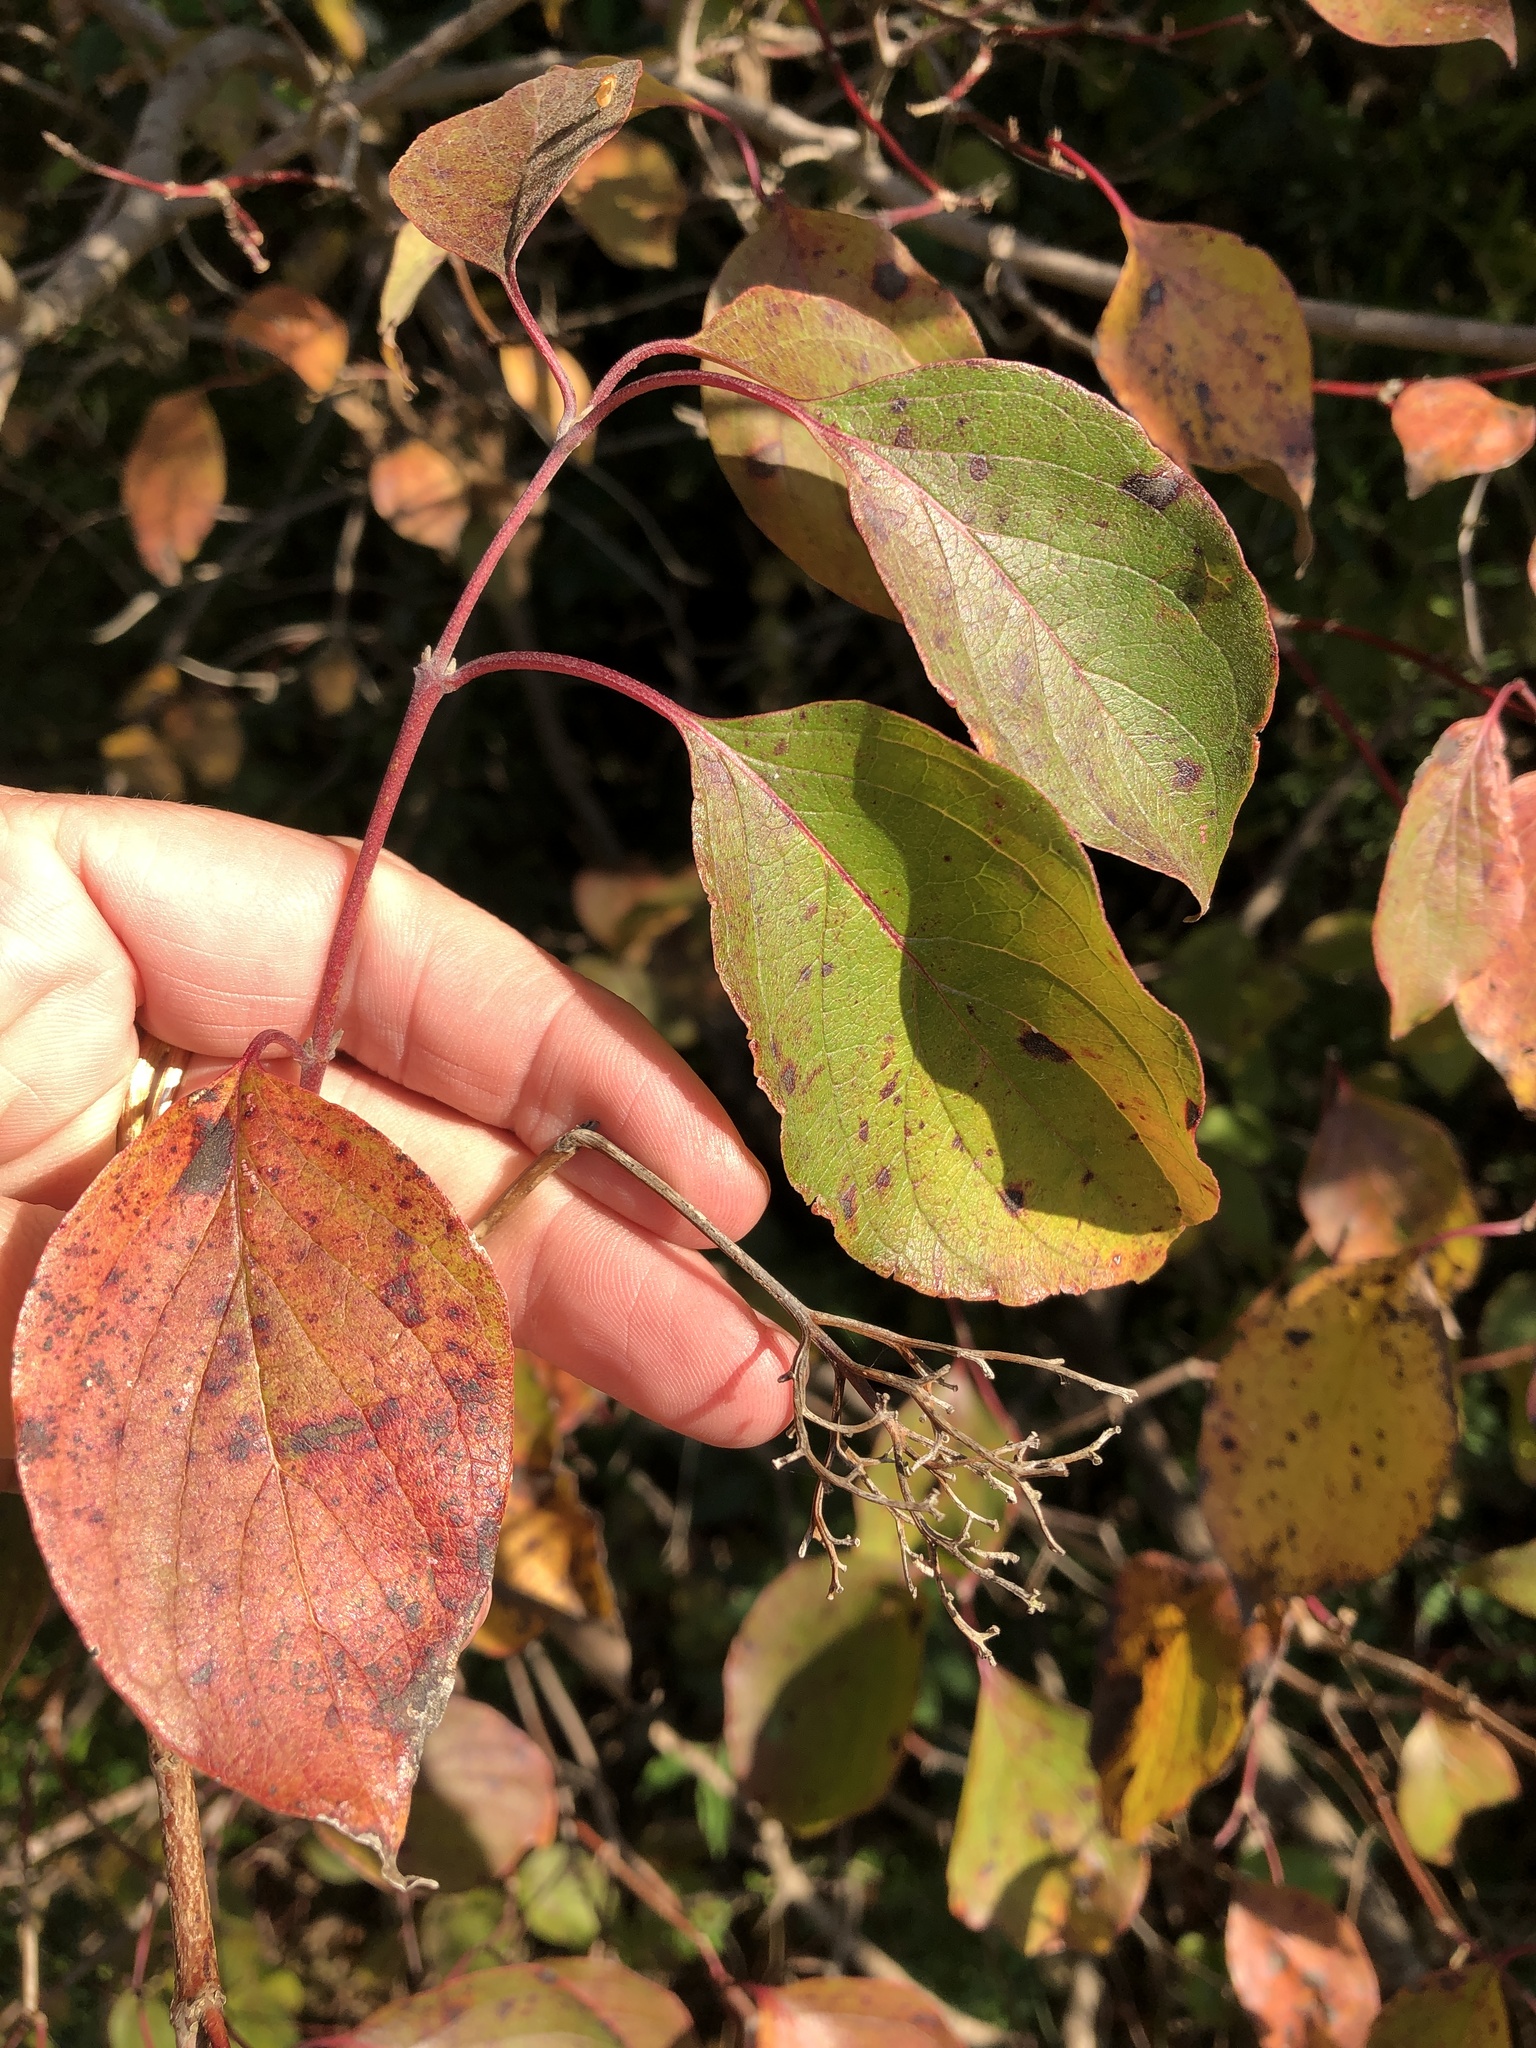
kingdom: Plantae
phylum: Tracheophyta
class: Magnoliopsida
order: Cornales
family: Cornaceae
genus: Cornus
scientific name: Cornus drummondii
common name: Rough-leaf dogwood
